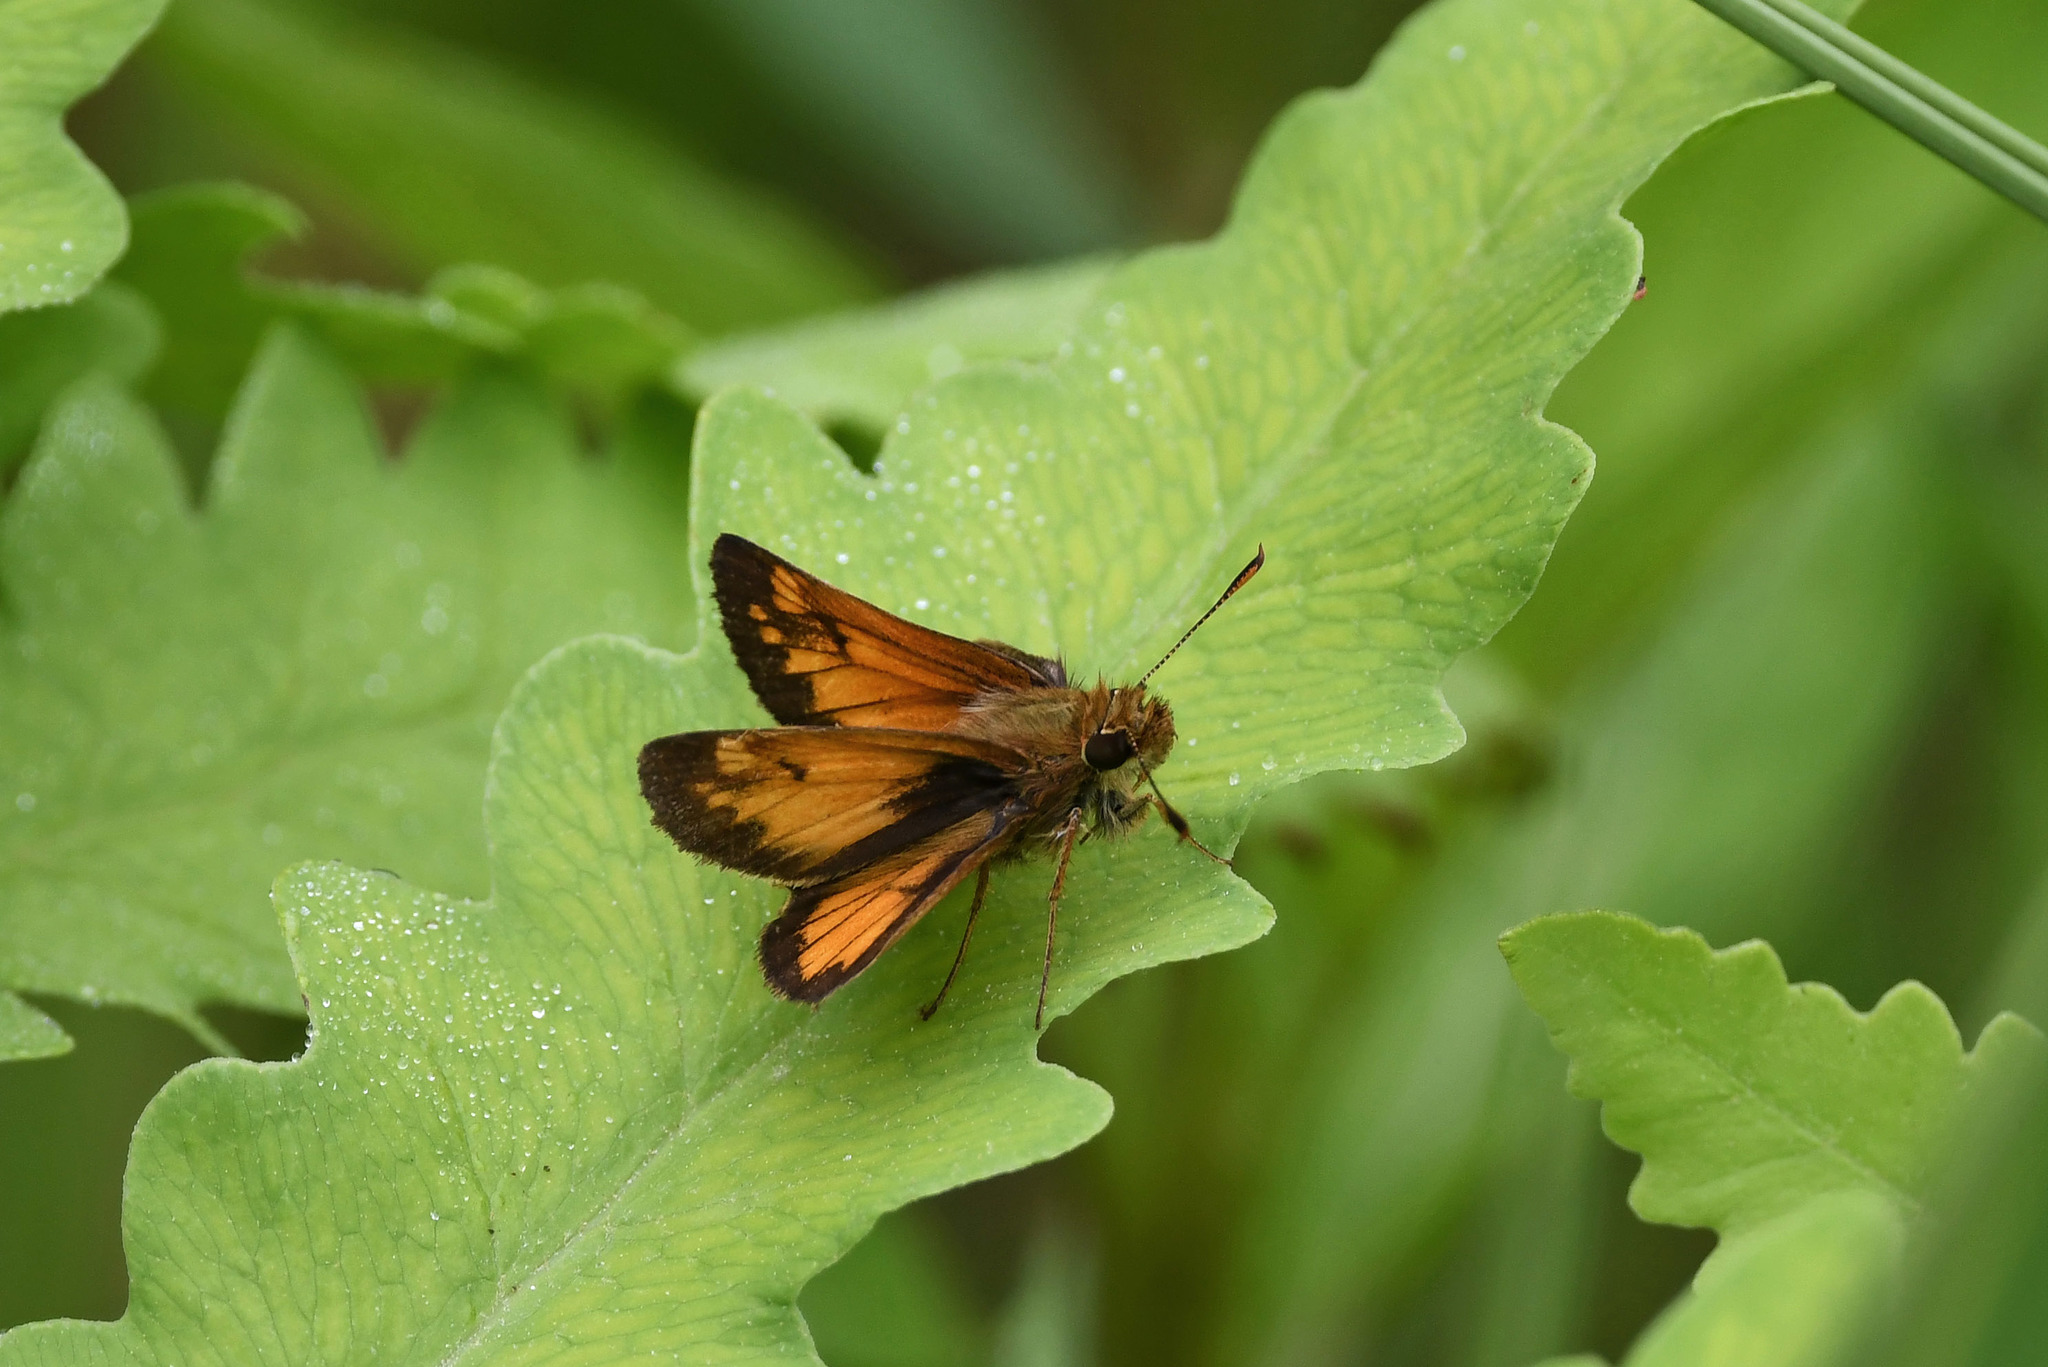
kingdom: Animalia
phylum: Arthropoda
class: Insecta
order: Lepidoptera
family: Hesperiidae
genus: Lon
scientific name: Lon hobomok
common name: Hobomok skipper
